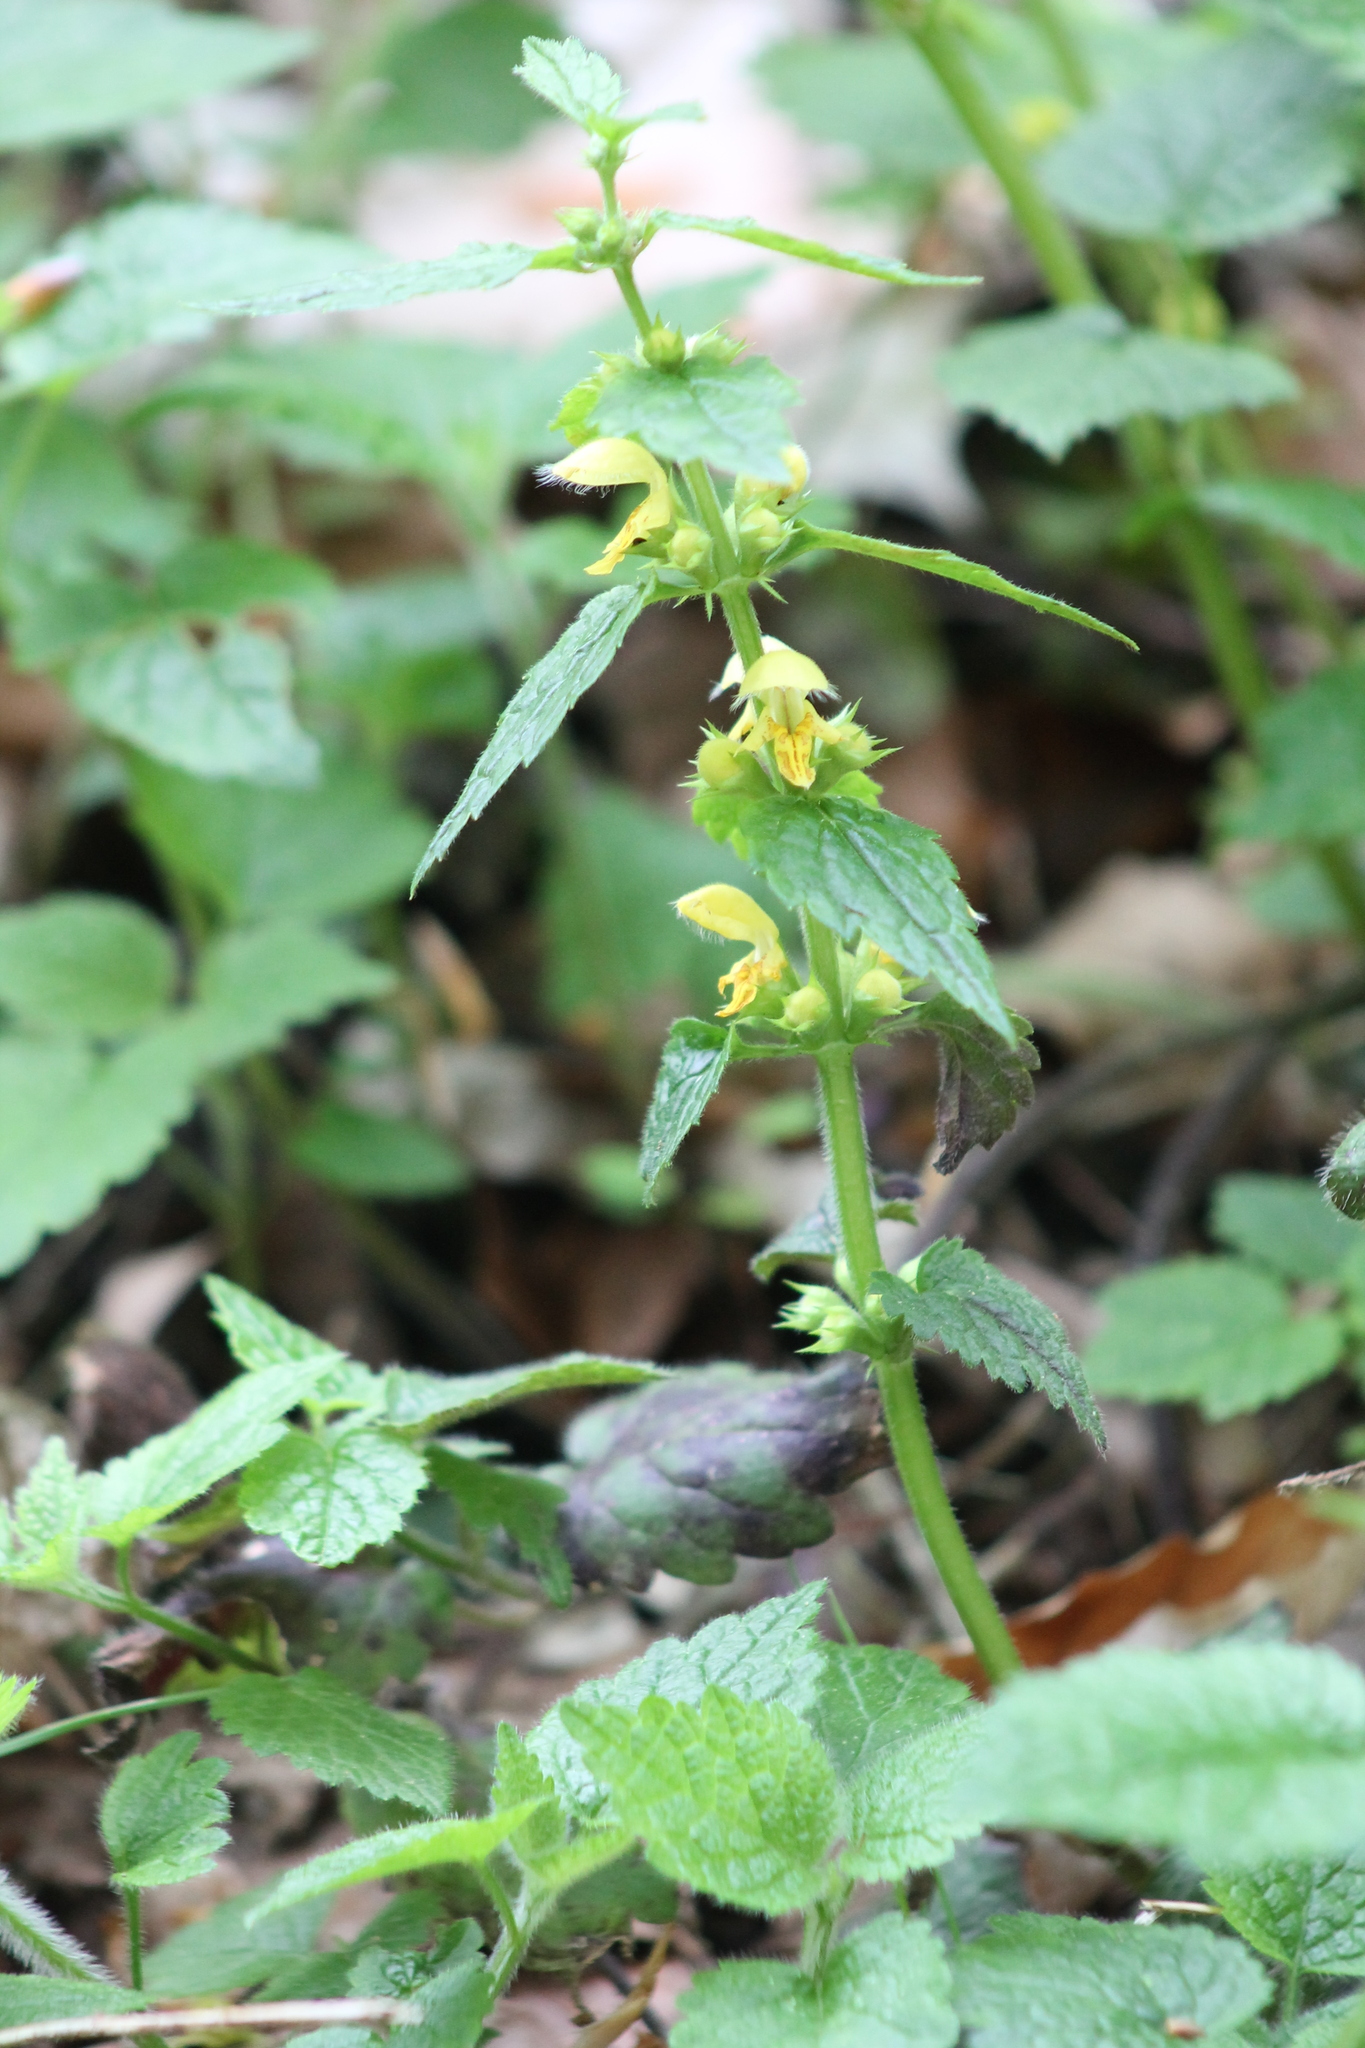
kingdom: Plantae
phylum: Tracheophyta
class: Magnoliopsida
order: Lamiales
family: Lamiaceae
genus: Lamium
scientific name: Lamium galeobdolon
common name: Yellow archangel
